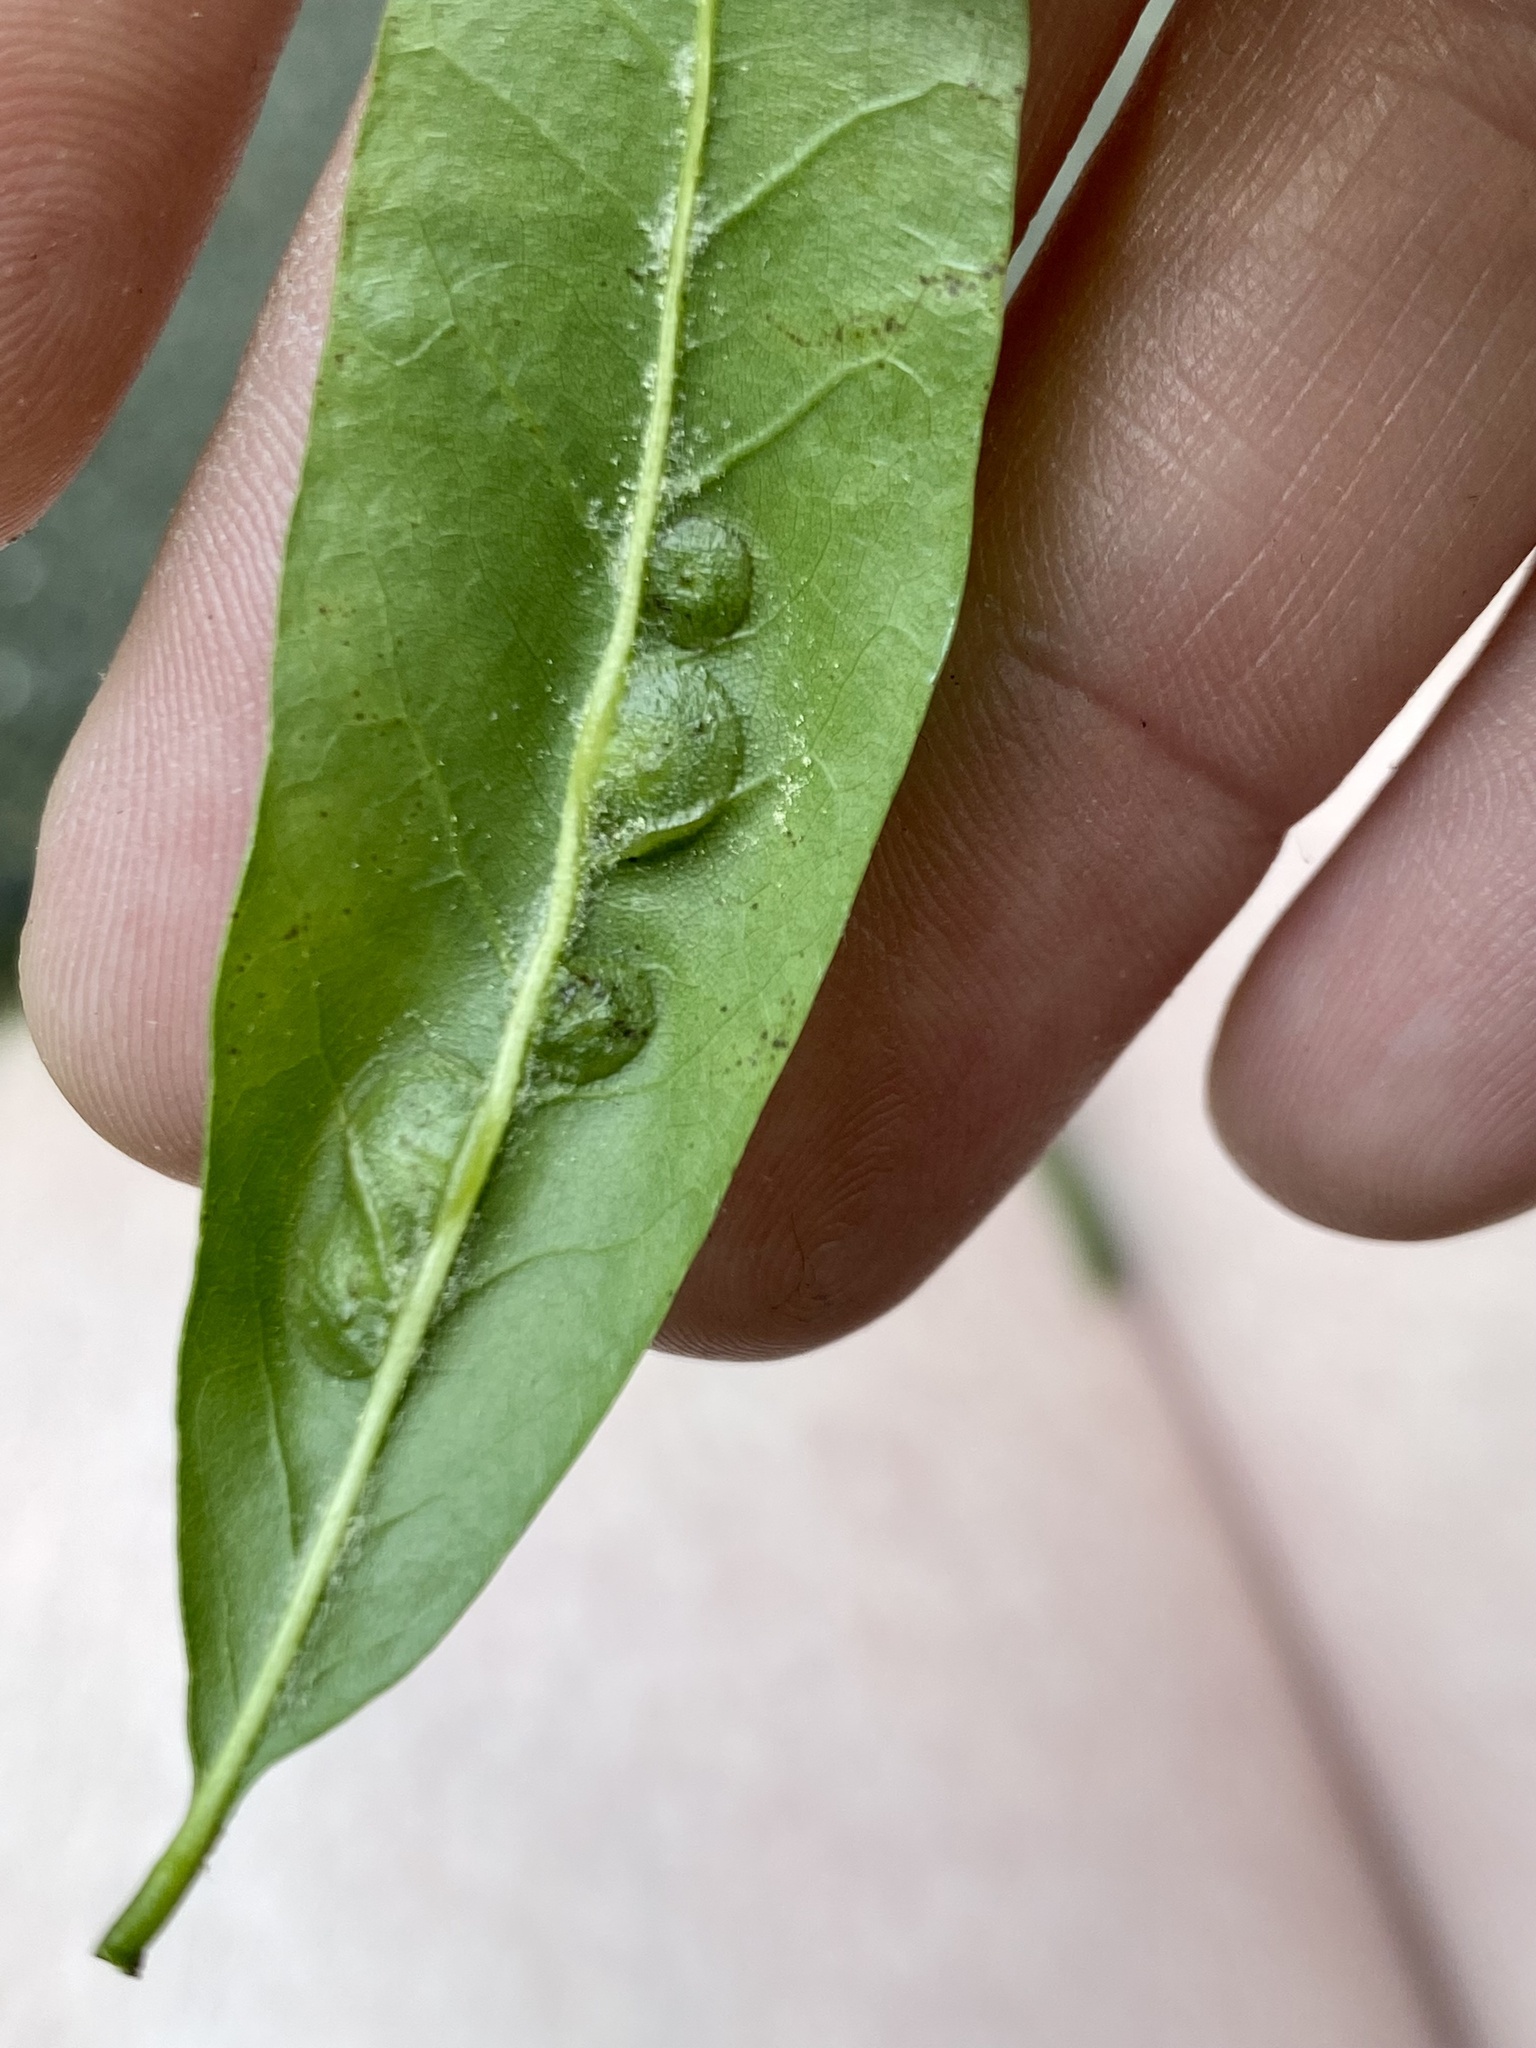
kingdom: Animalia
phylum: Arthropoda
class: Insecta
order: Diptera
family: Cecidomyiidae
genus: Polystepha
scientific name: Polystepha pilulae
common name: Oak leaf gall midge
